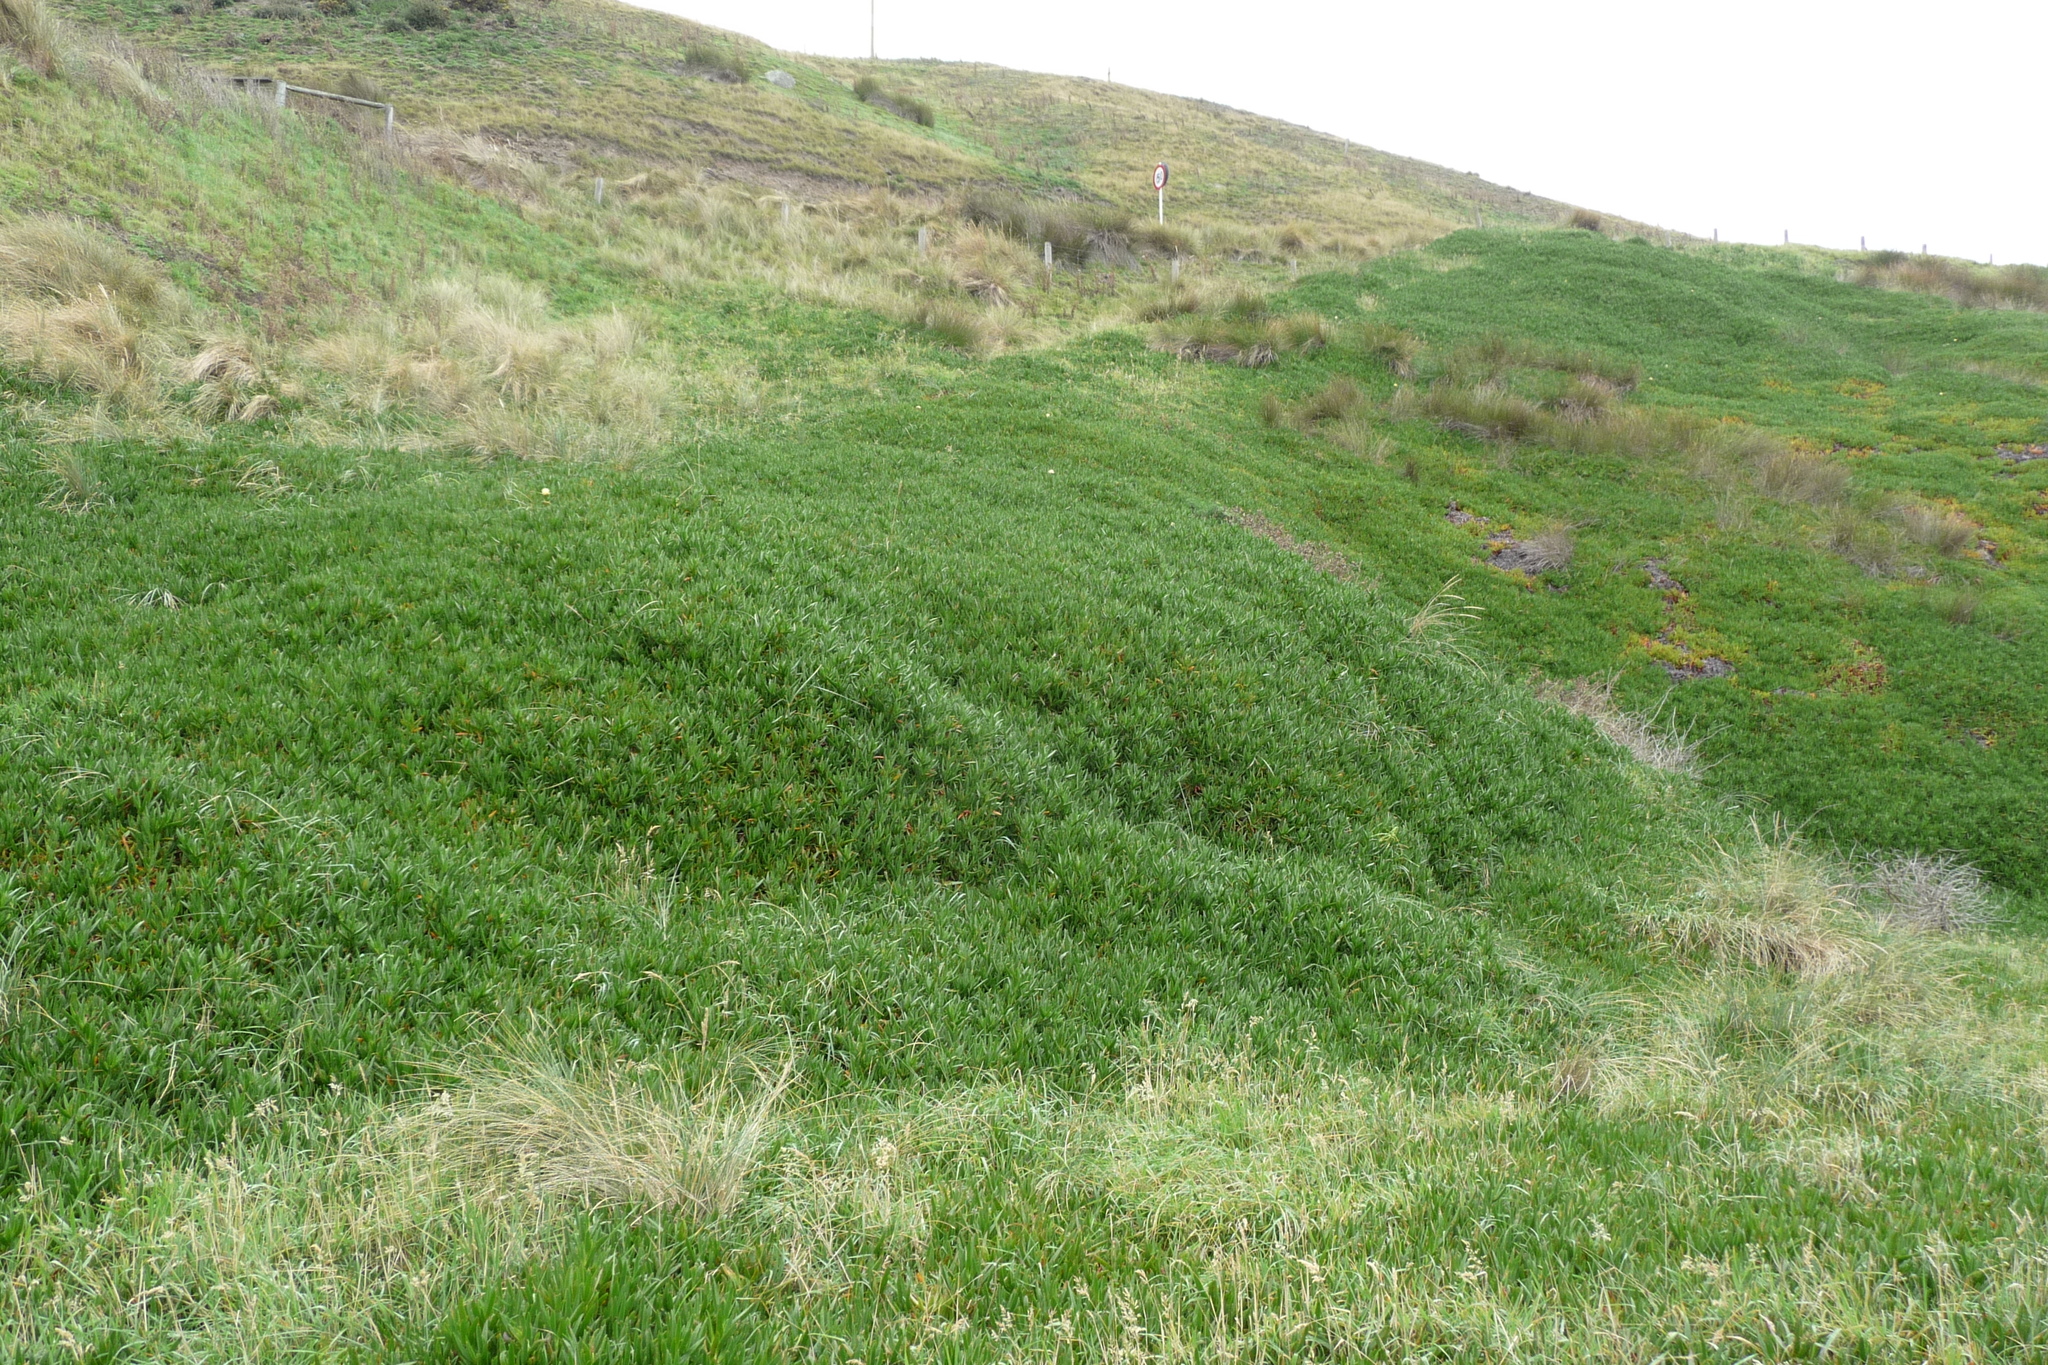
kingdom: Plantae
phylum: Tracheophyta
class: Magnoliopsida
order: Caryophyllales
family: Aizoaceae
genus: Carpobrotus
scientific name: Carpobrotus edulis
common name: Hottentot-fig
